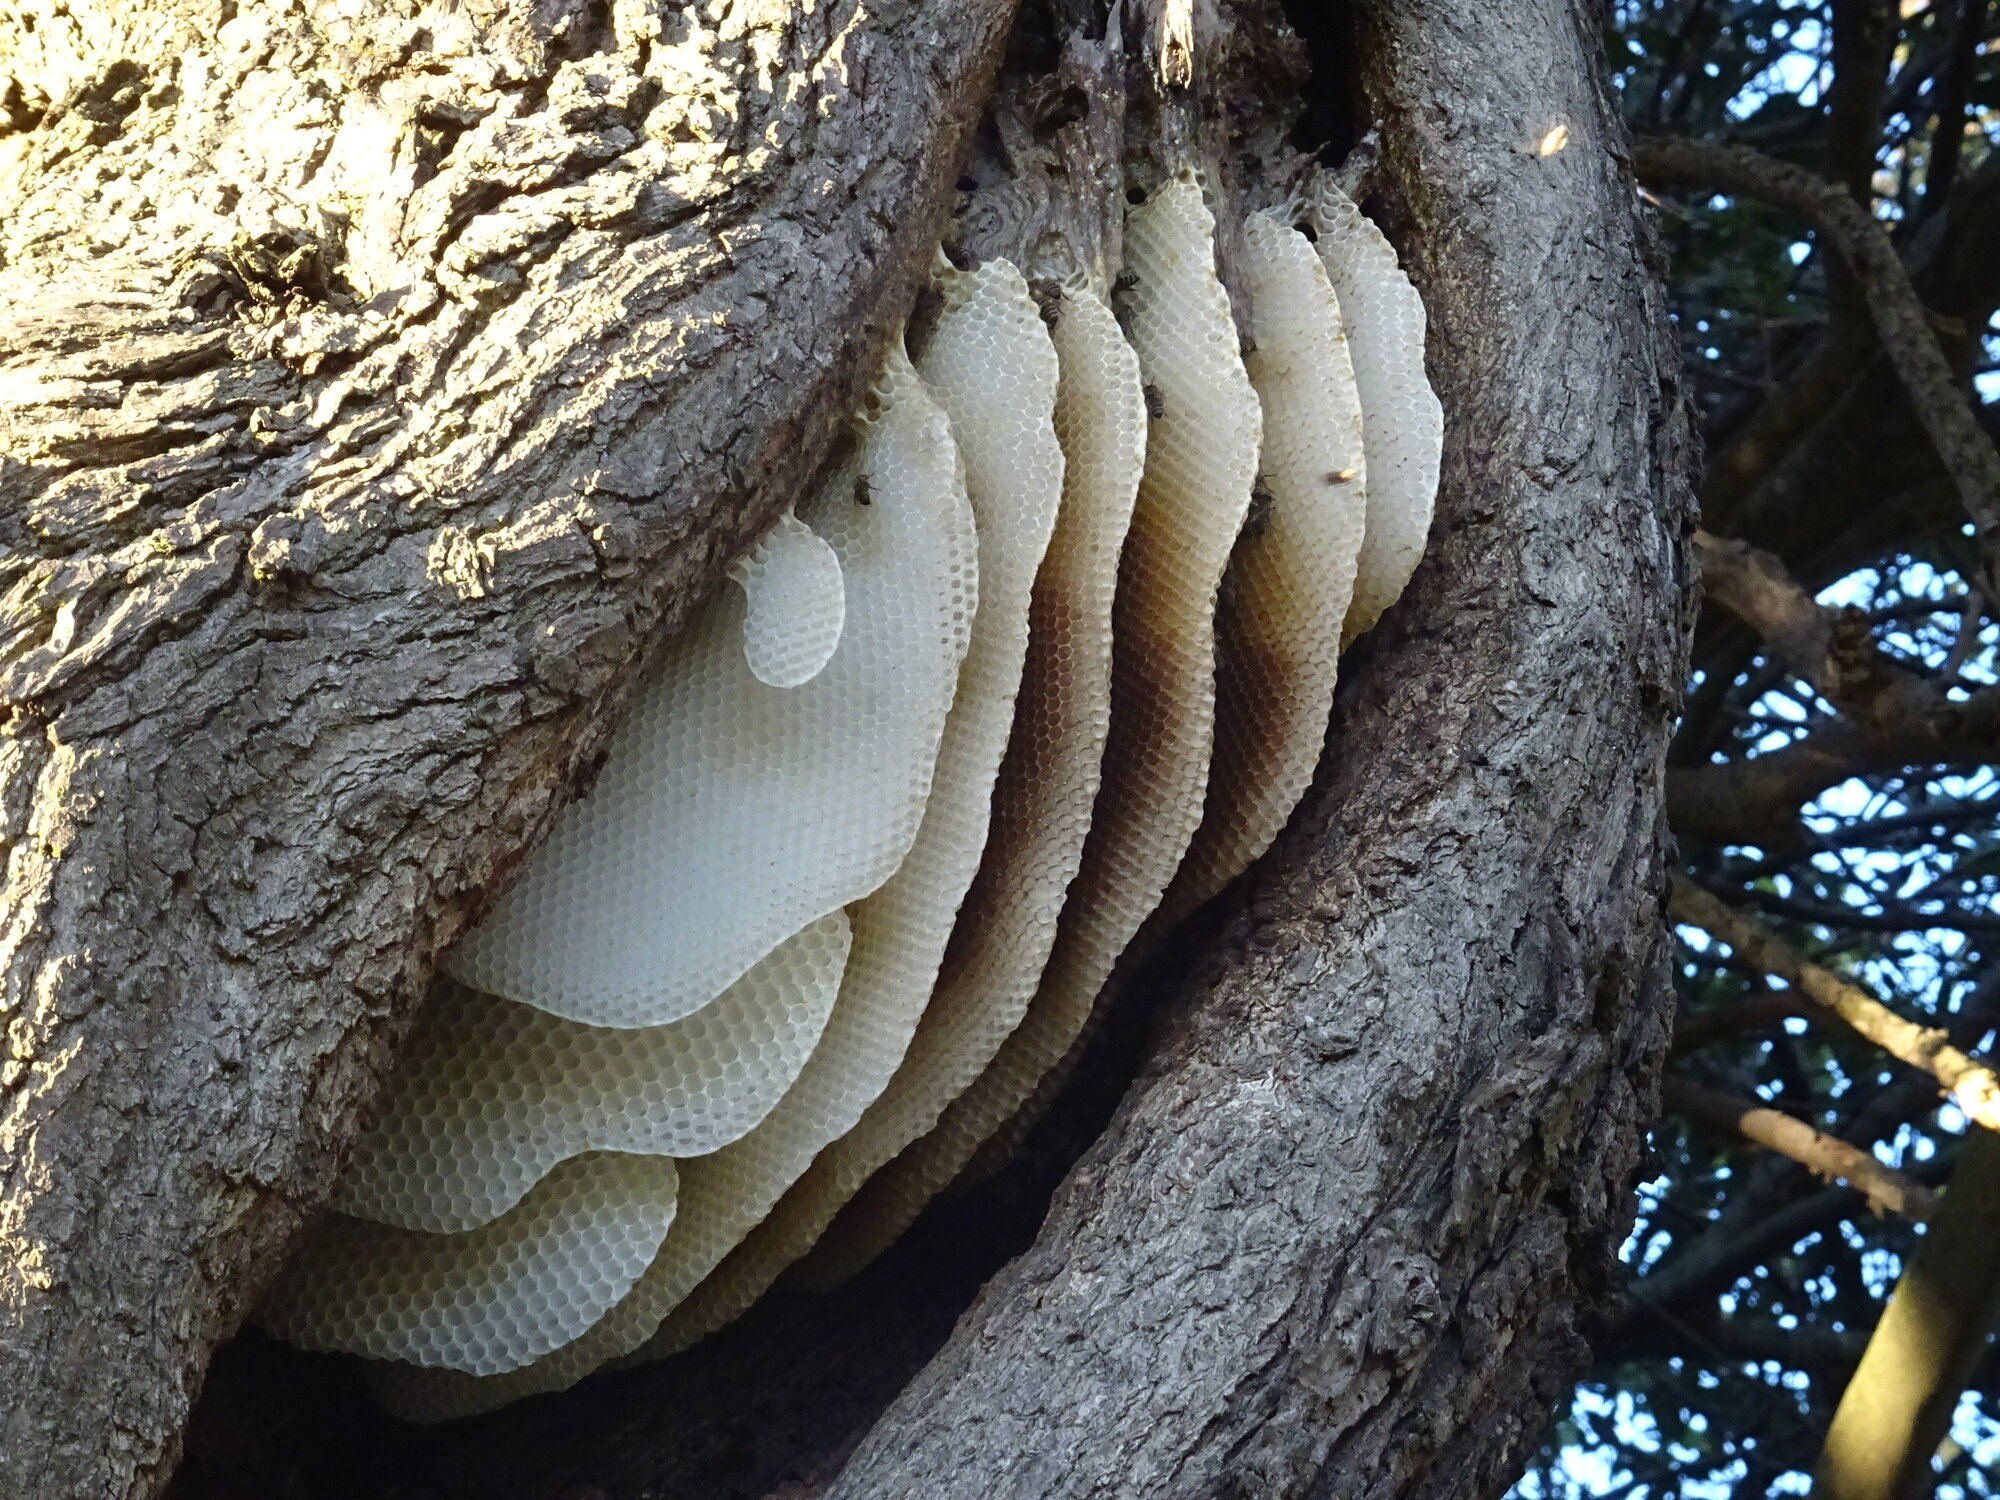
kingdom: Animalia
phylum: Arthropoda
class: Insecta
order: Hymenoptera
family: Apidae
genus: Apis
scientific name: Apis mellifera
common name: Honey bee
